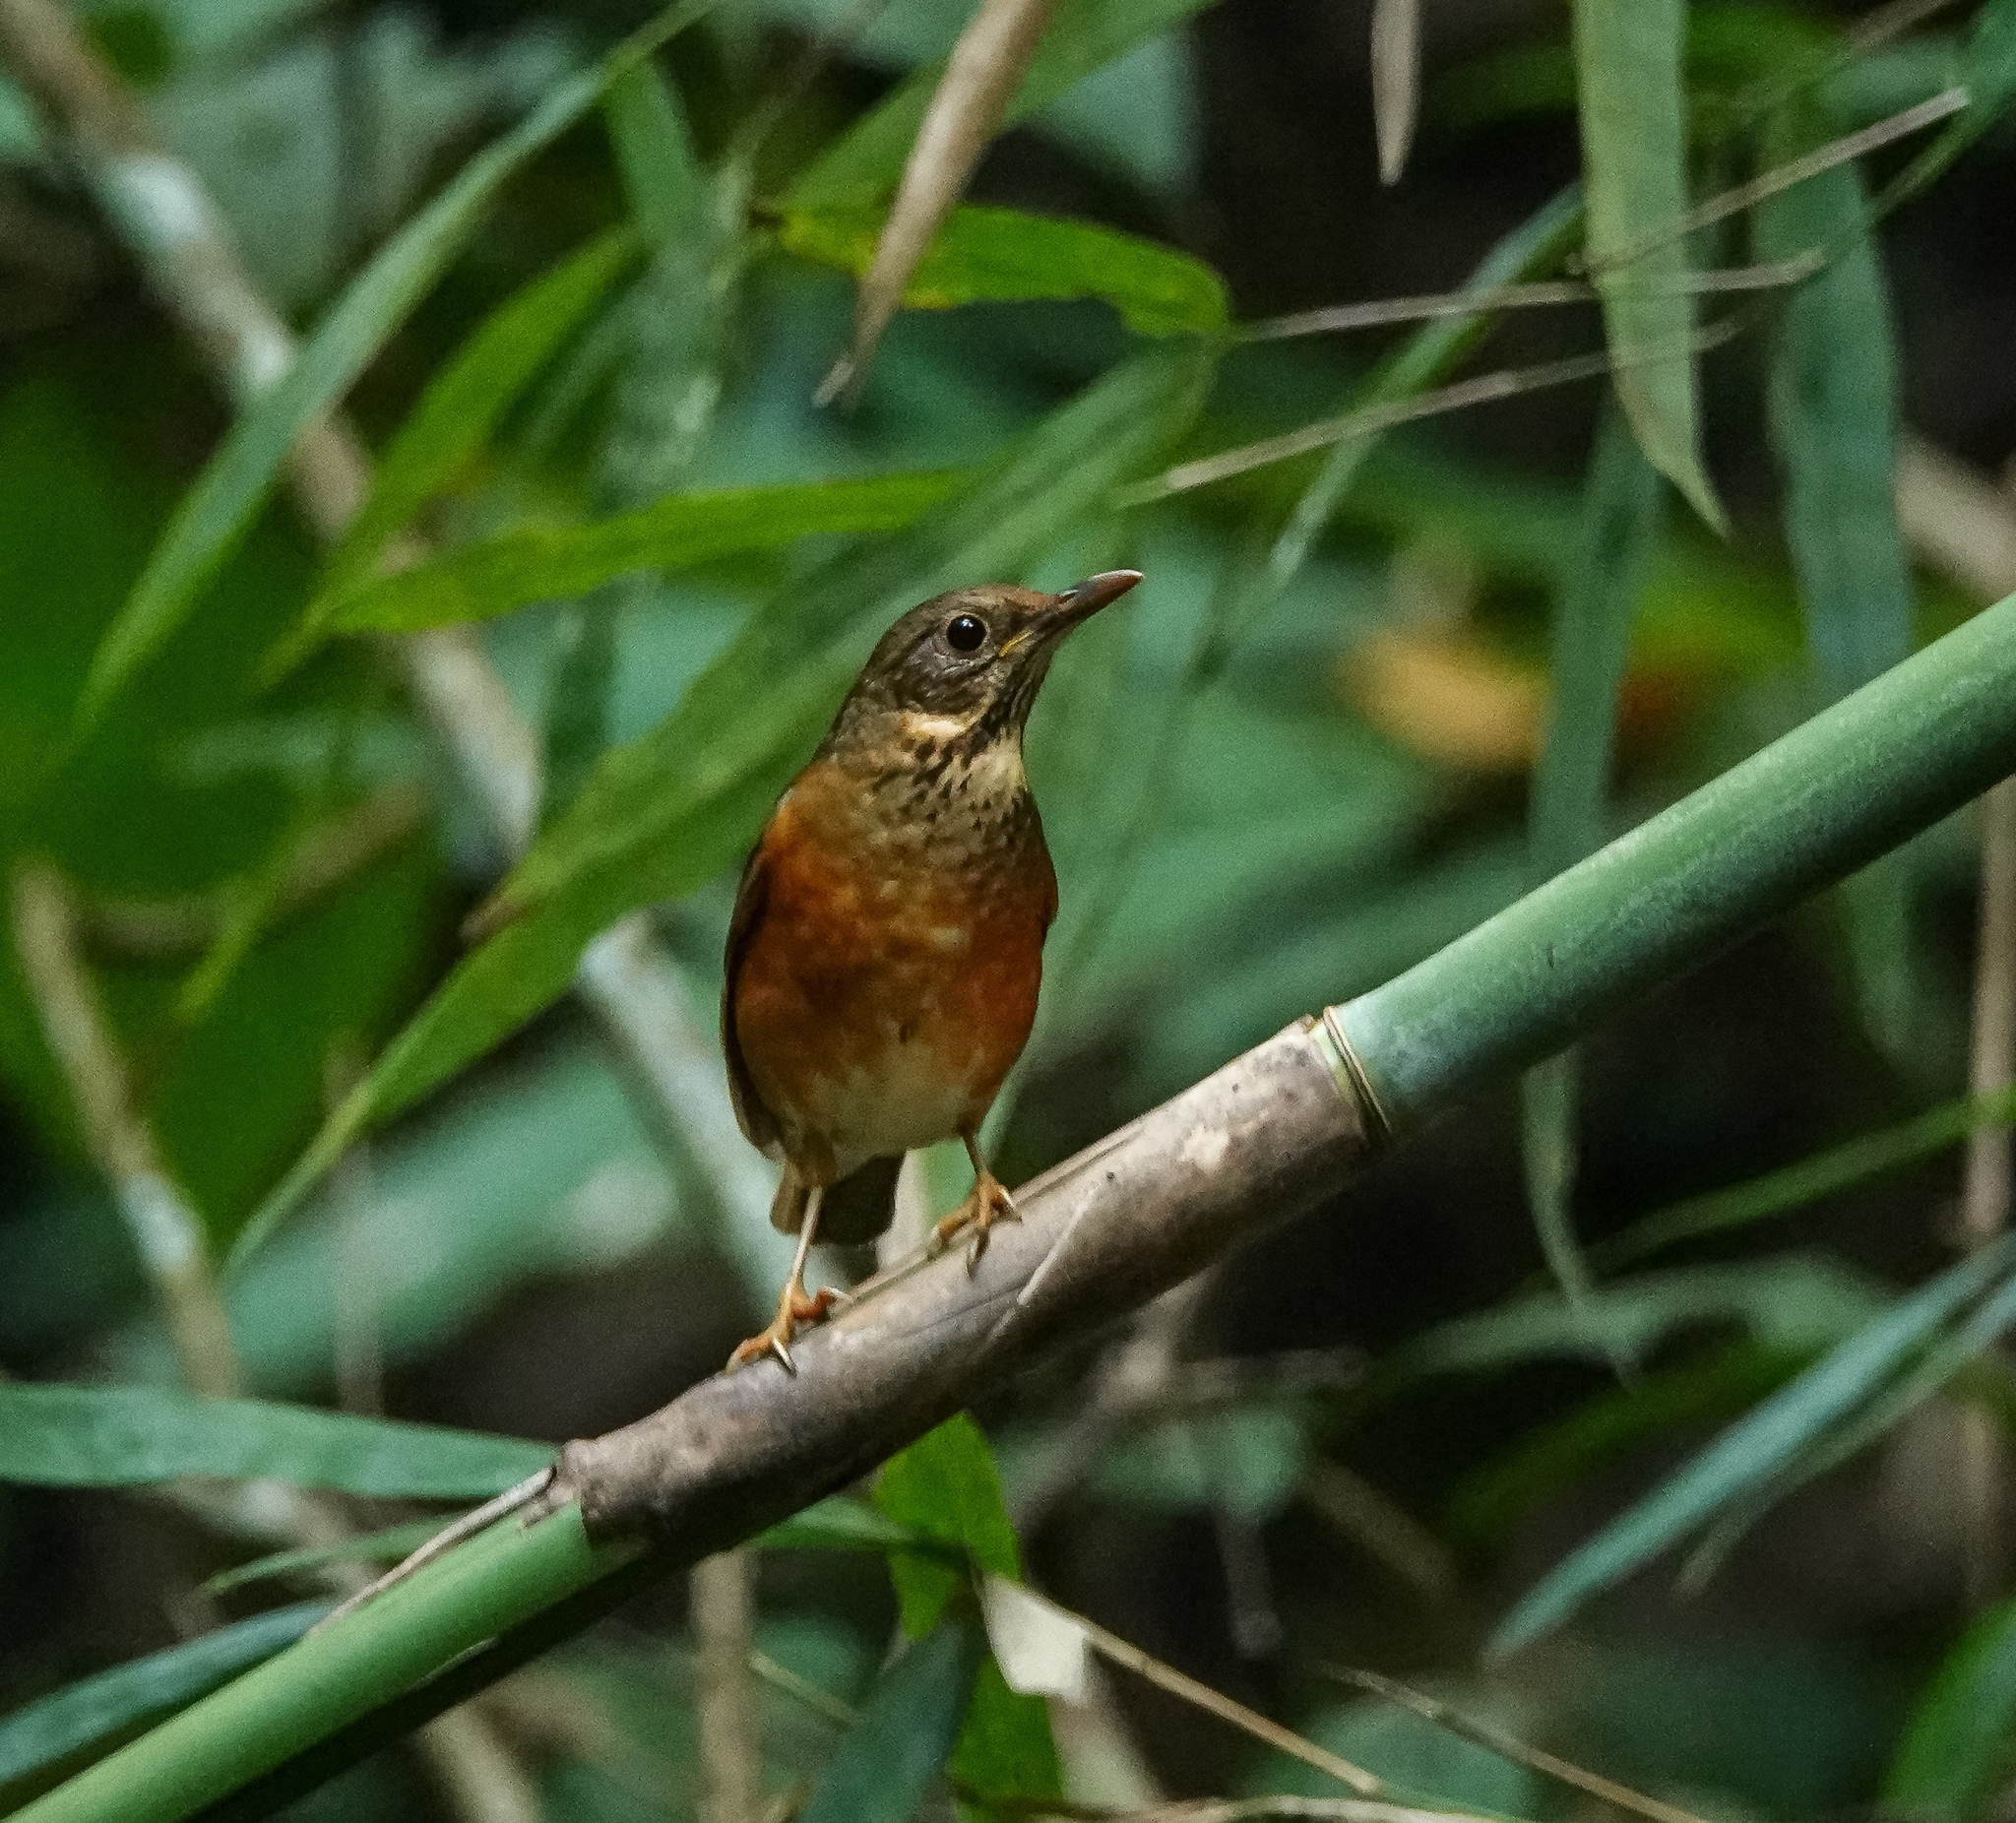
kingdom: Animalia
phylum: Chordata
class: Aves
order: Passeriformes
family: Turdidae
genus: Turdus
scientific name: Turdus dissimilis
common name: Black-breasted thrush
